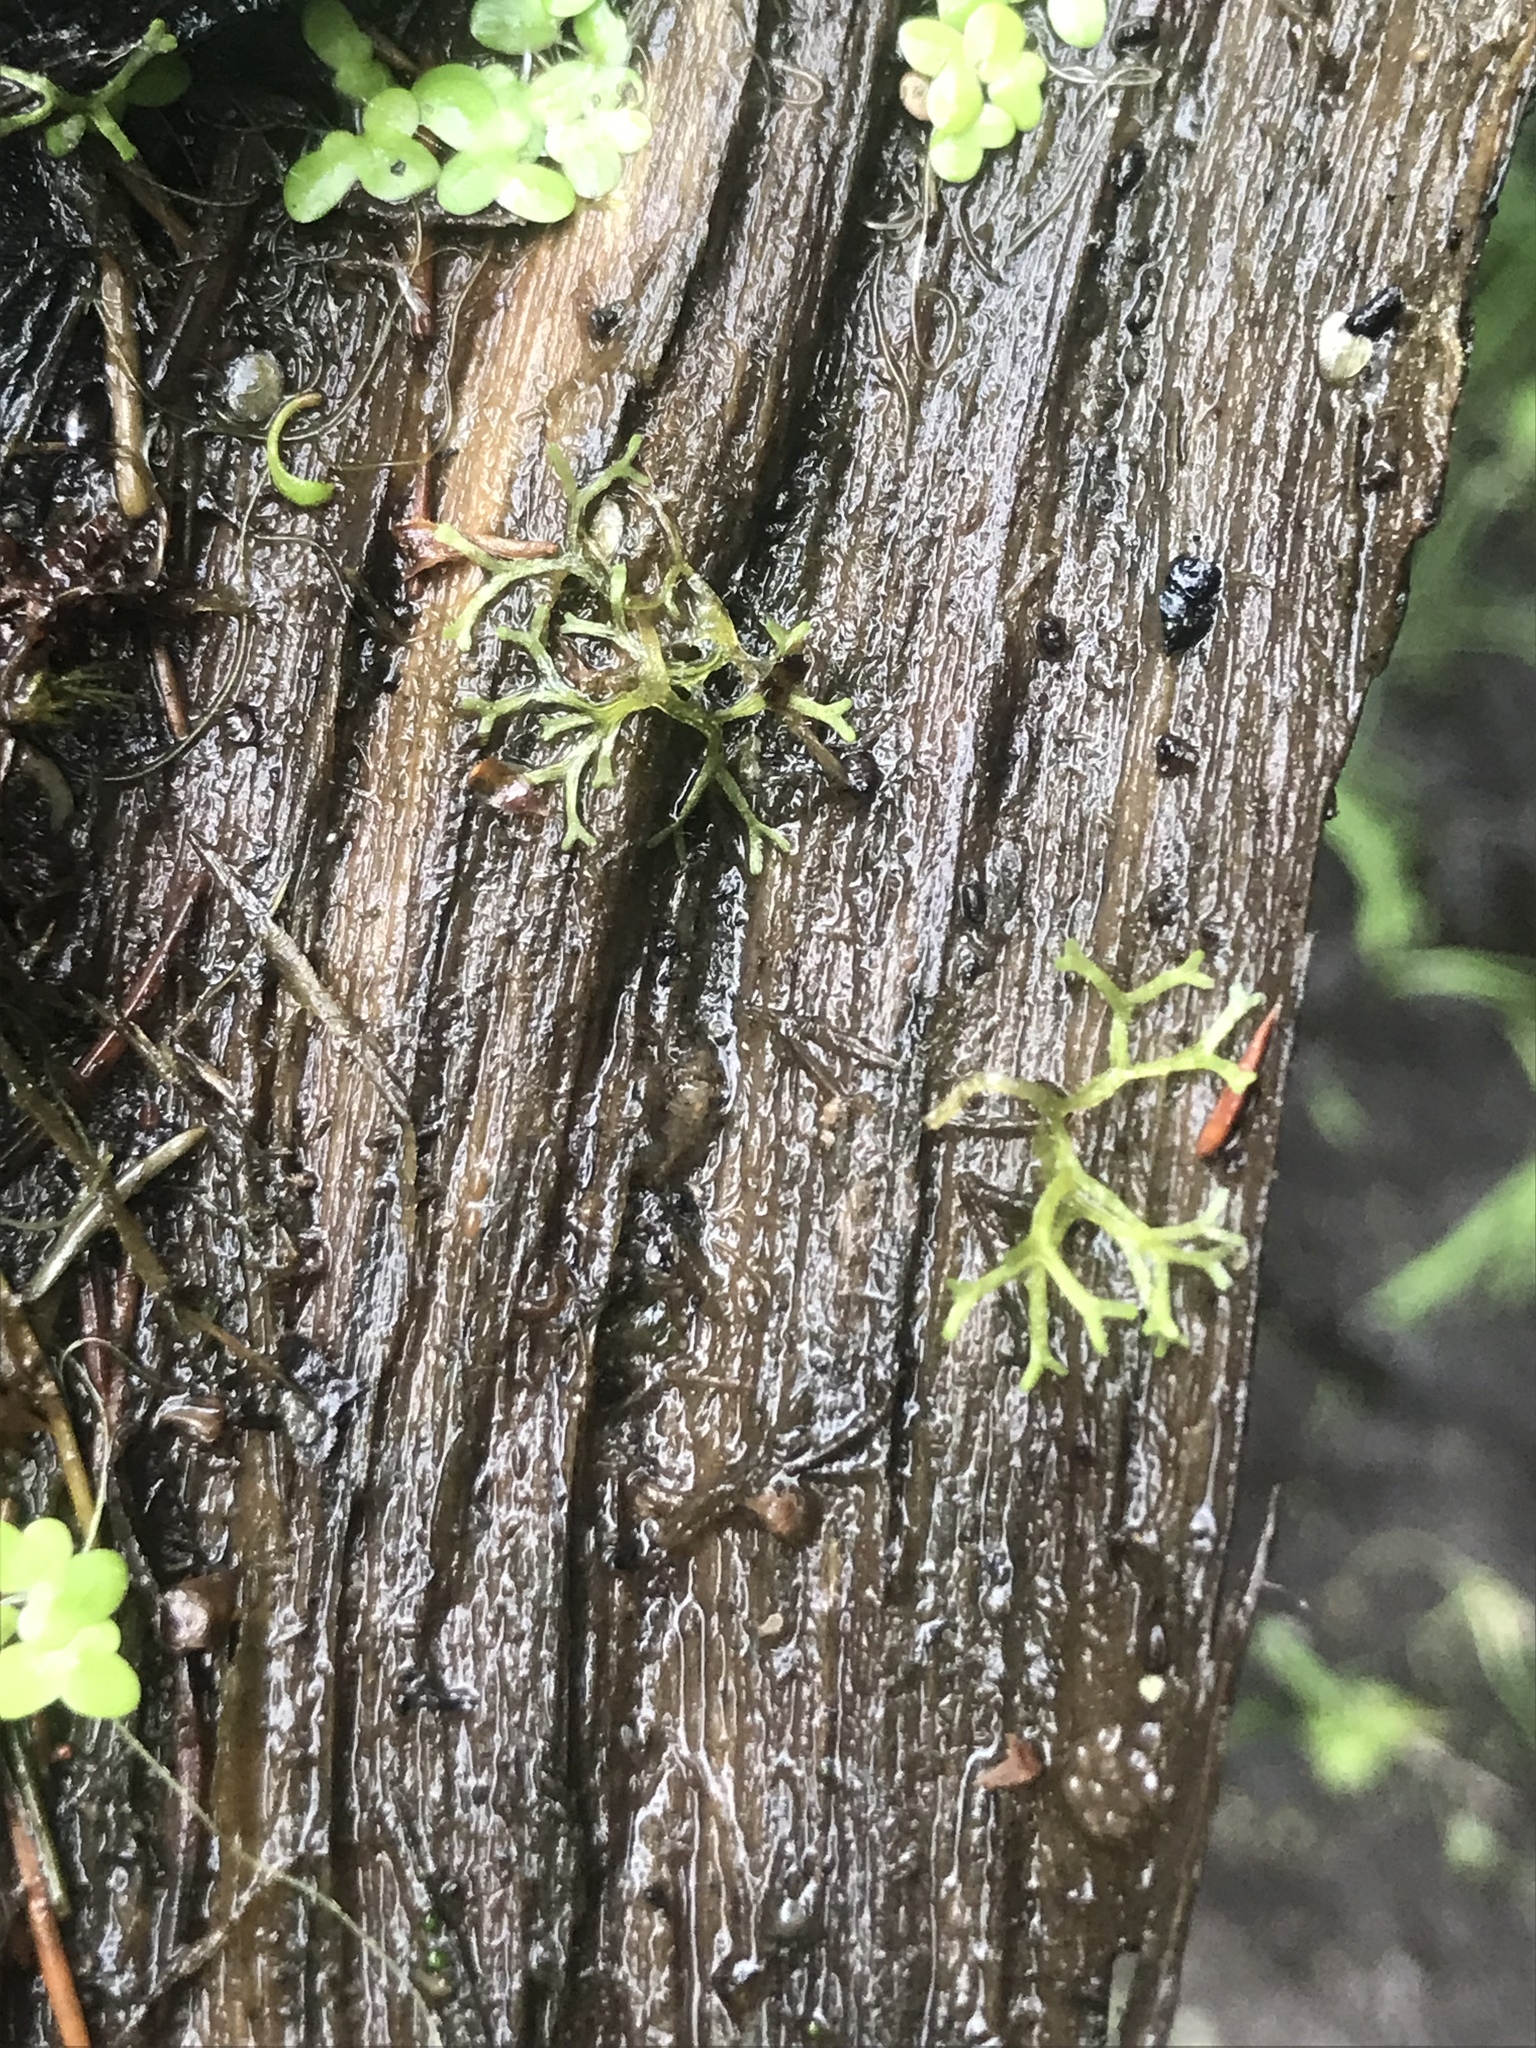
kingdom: Plantae
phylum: Marchantiophyta
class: Marchantiopsida
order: Marchantiales
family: Ricciaceae
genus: Riccia
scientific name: Riccia fluitans
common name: Floating crystalwort
